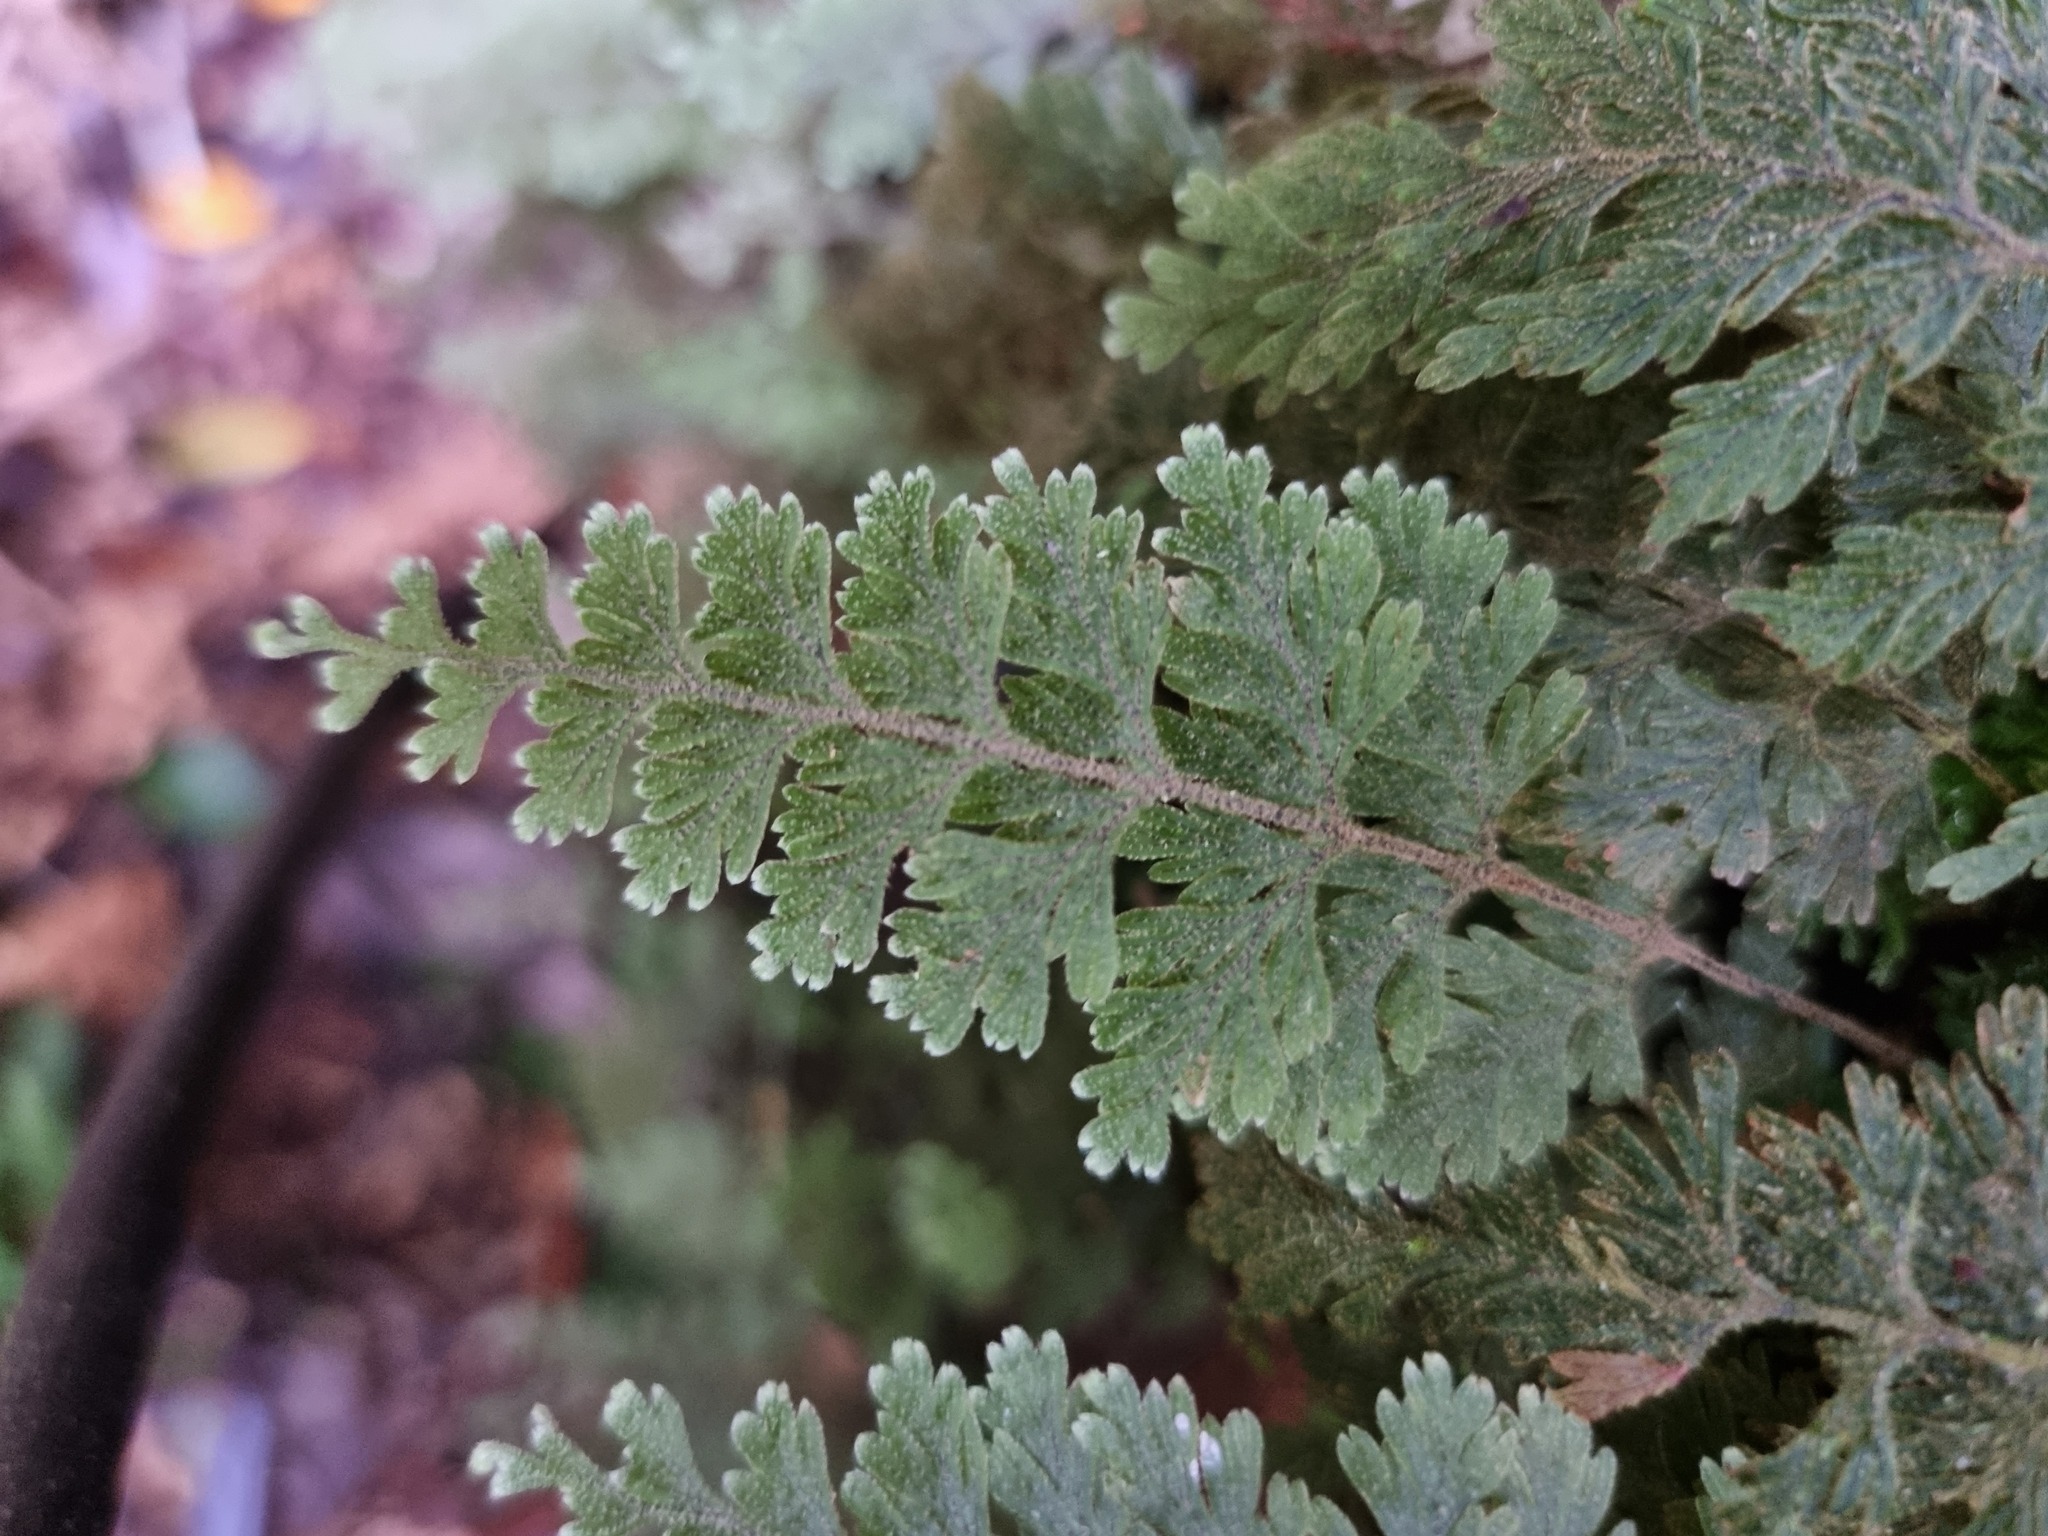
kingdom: Plantae
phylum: Tracheophyta
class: Polypodiopsida
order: Hymenophyllales
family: Hymenophyllaceae
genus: Hymenophyllum
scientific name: Hymenophyllum frankliniae
